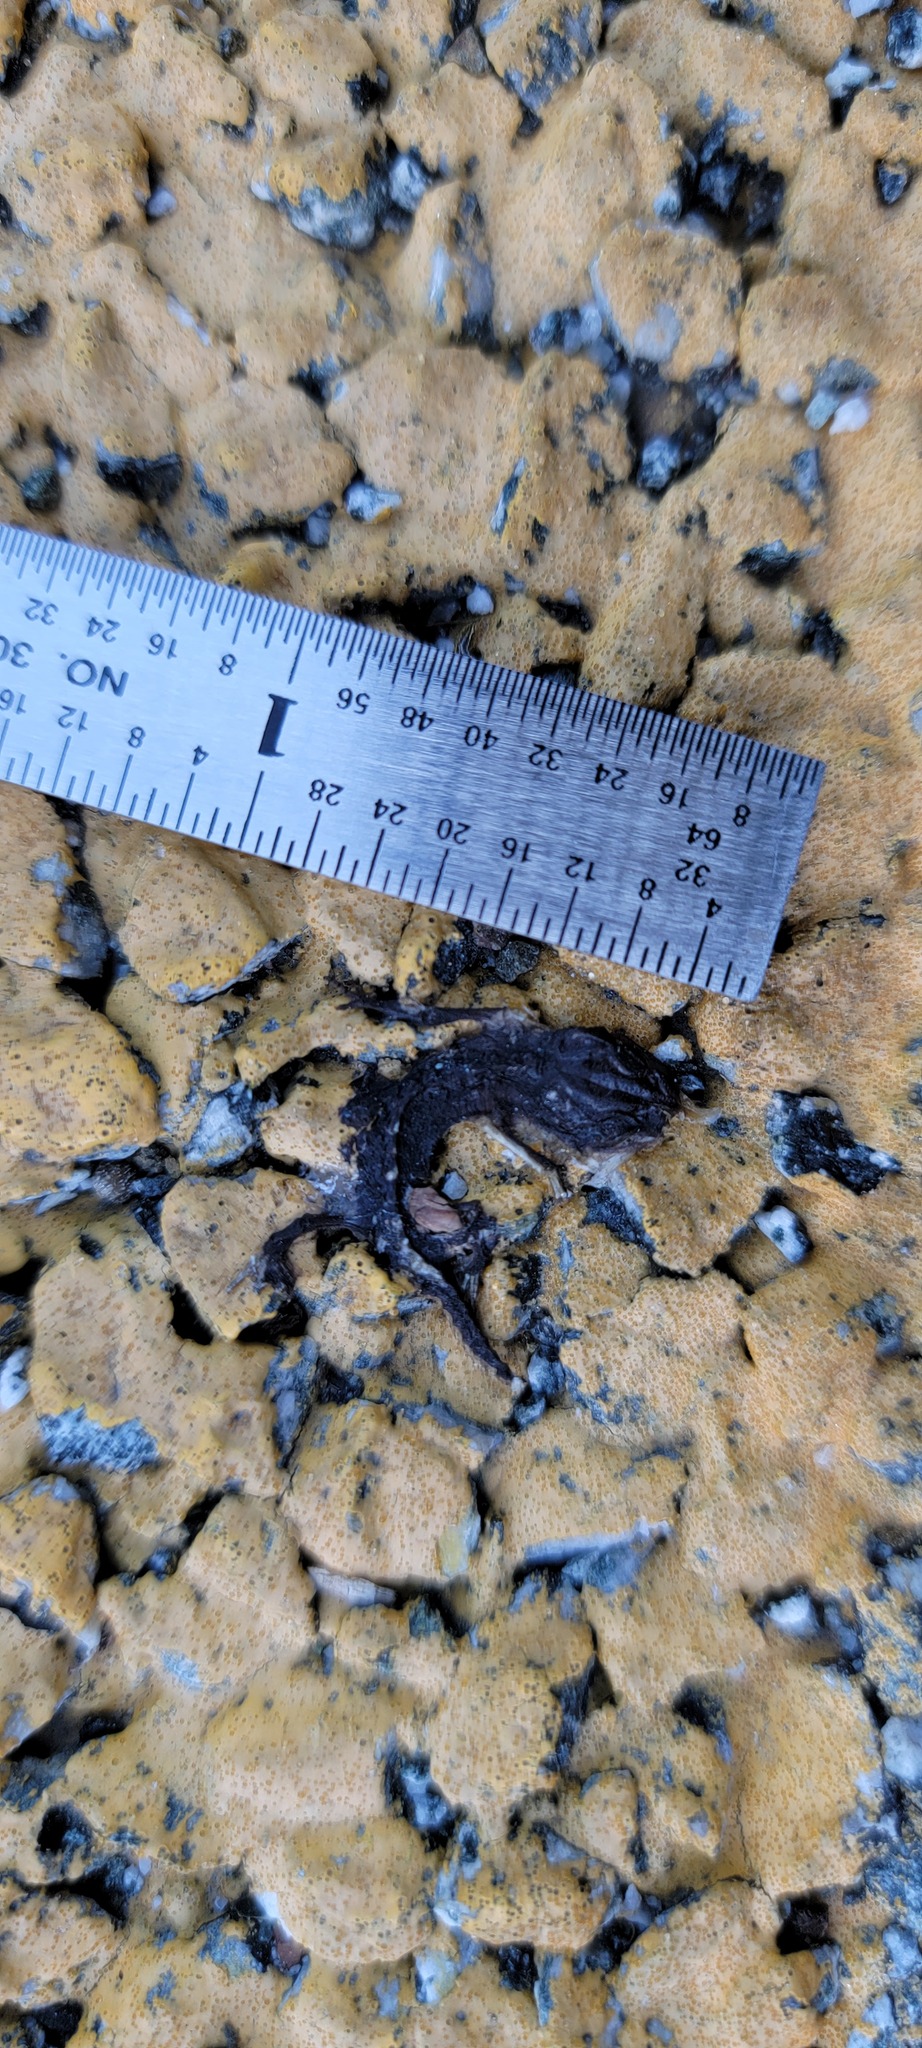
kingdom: Animalia
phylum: Chordata
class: Amphibia
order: Caudata
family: Salamandridae
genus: Taricha
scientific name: Taricha
